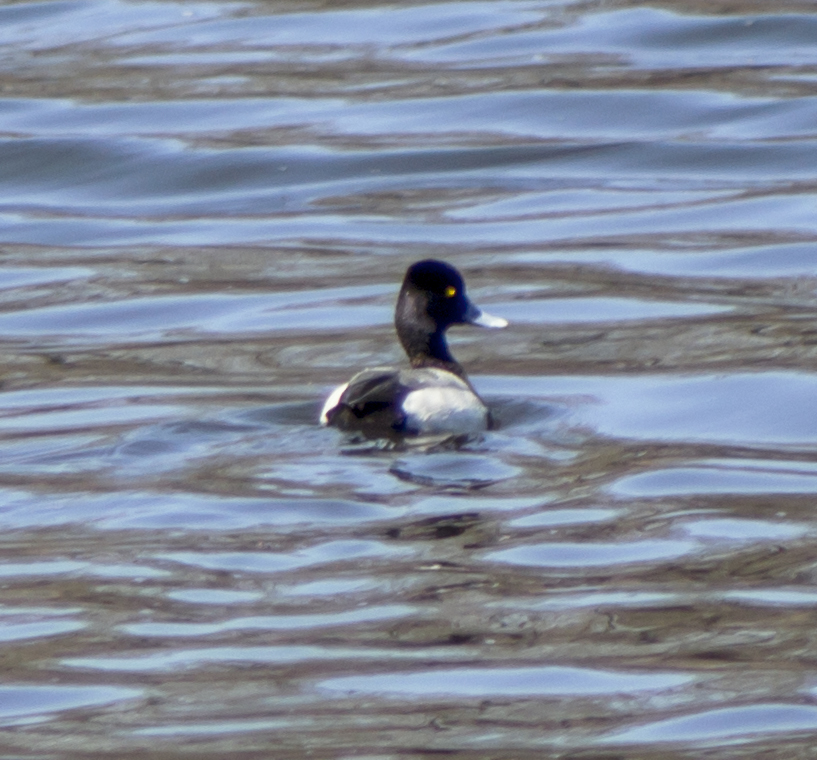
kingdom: Animalia
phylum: Chordata
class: Aves
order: Anseriformes
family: Anatidae
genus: Aythya
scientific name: Aythya affinis
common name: Lesser scaup
